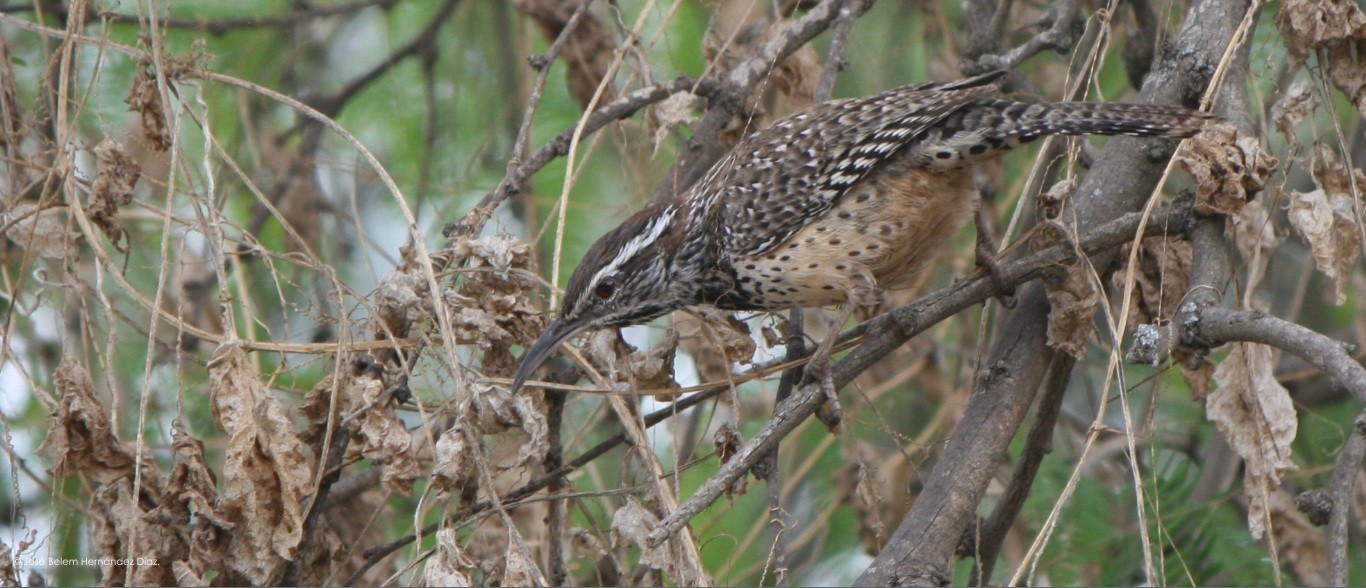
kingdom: Animalia
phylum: Chordata
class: Aves
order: Passeriformes
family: Troglodytidae
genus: Campylorhynchus
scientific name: Campylorhynchus brunneicapillus
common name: Cactus wren
